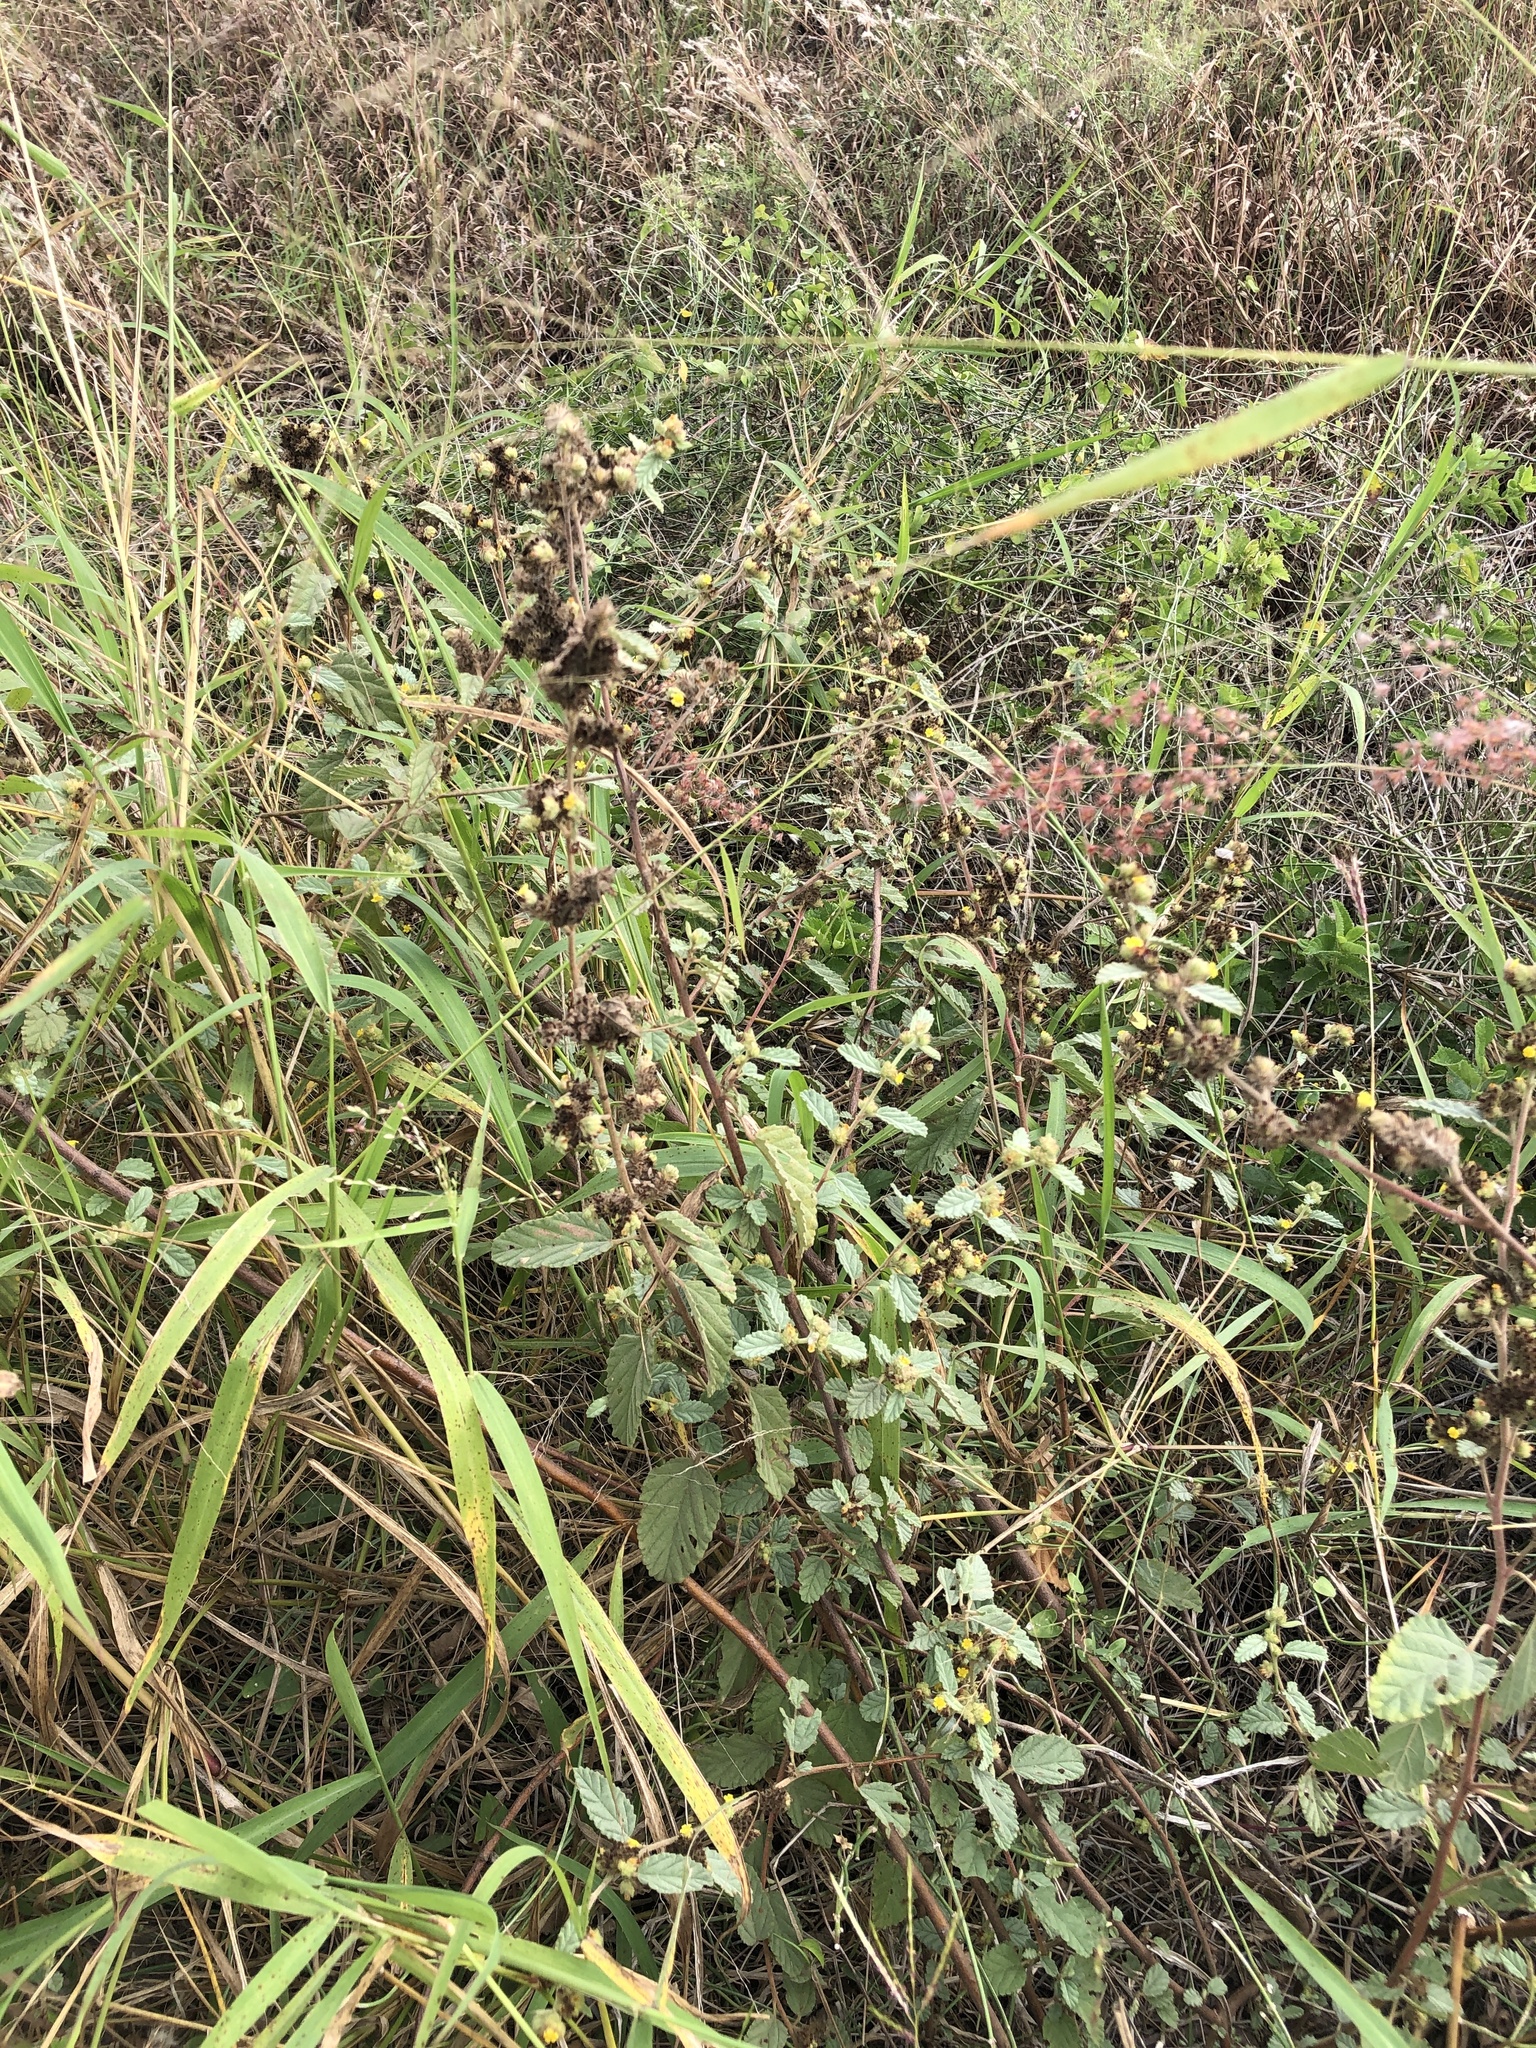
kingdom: Plantae
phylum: Tracheophyta
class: Magnoliopsida
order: Malvales
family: Malvaceae
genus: Waltheria
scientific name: Waltheria indica
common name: Leather-coat
